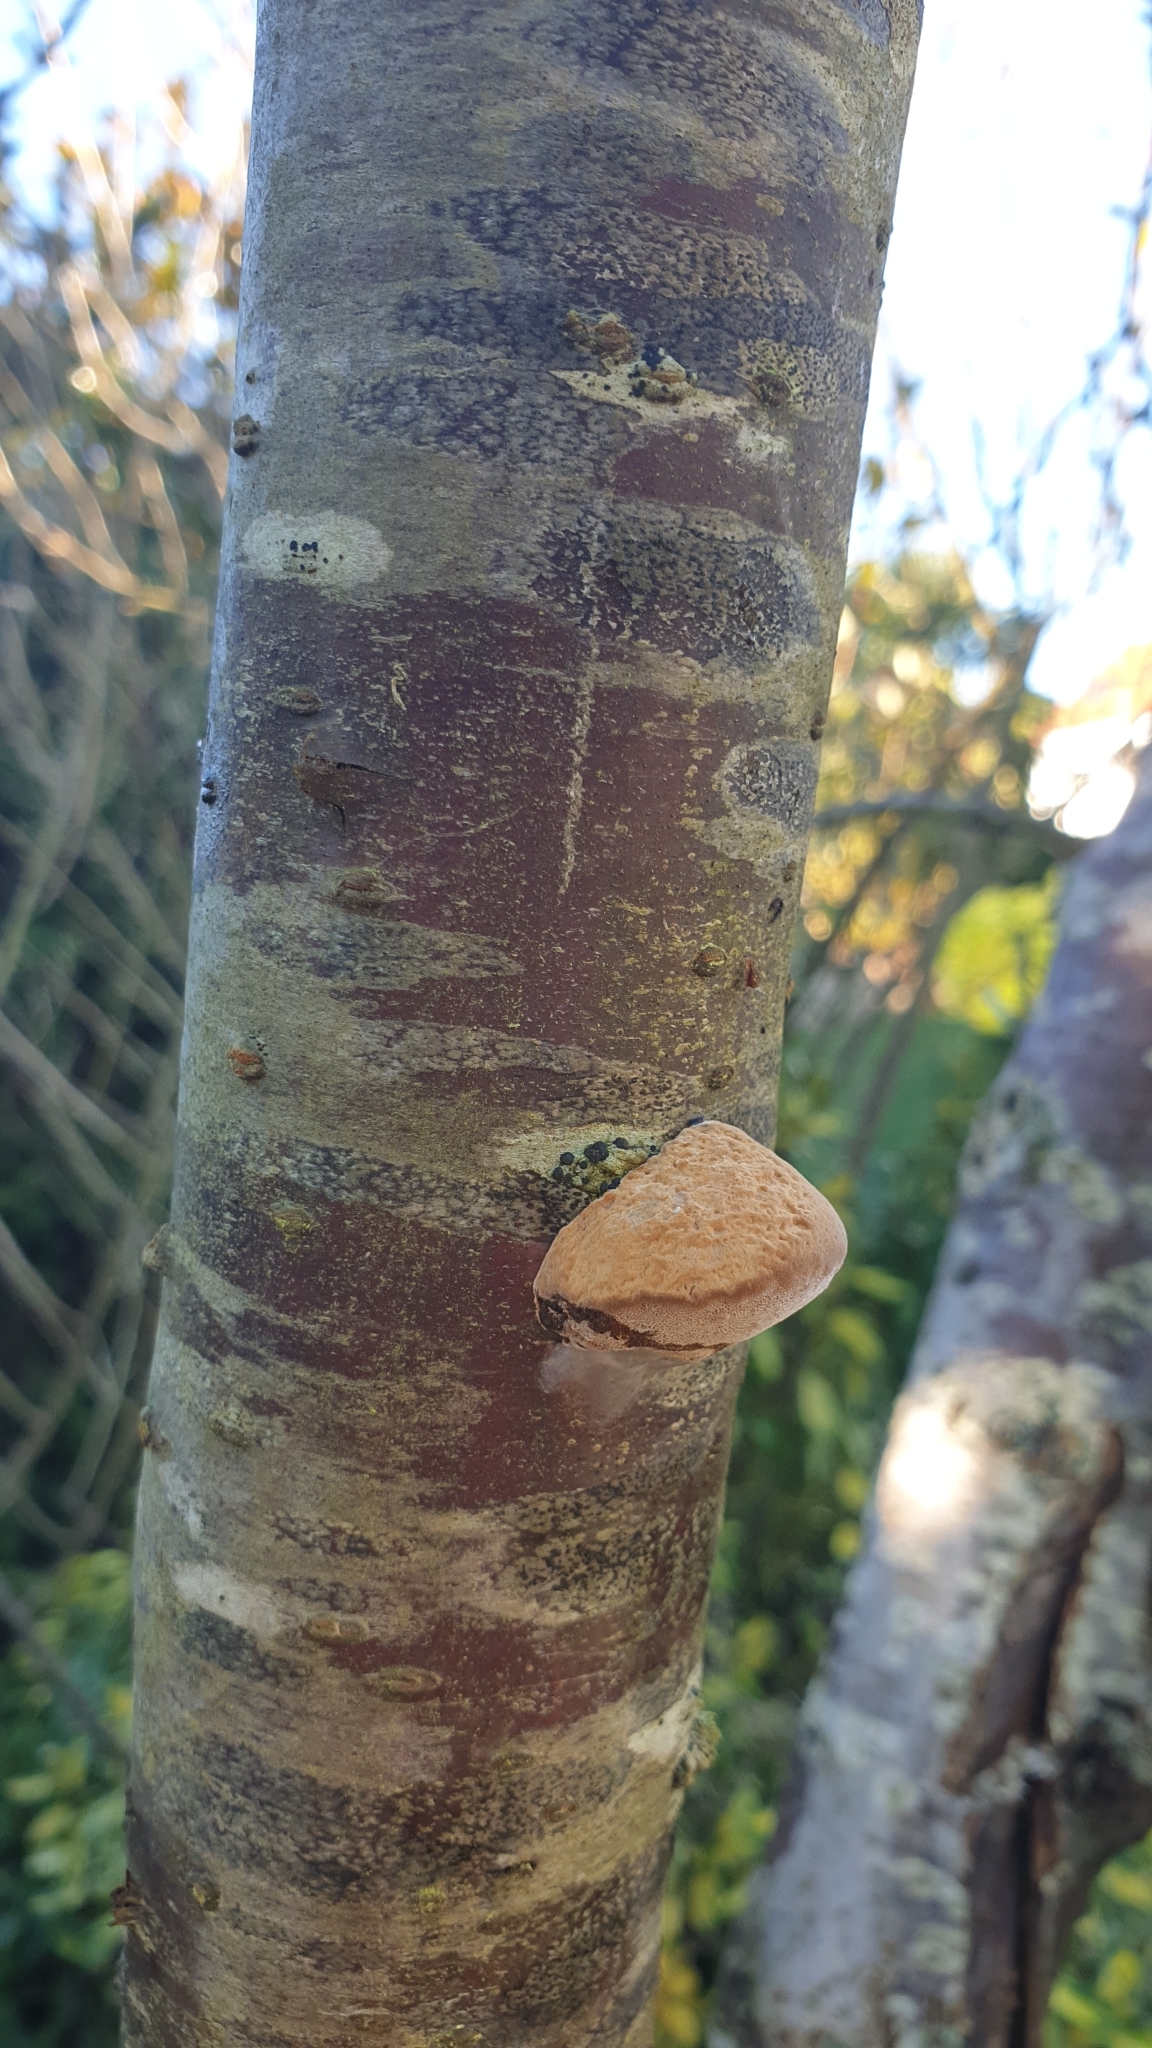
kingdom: Fungi
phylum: Basidiomycota
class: Agaricomycetes
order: Hymenochaetales
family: Hymenochaetaceae
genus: Phellinus
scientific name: Phellinus pomaceus
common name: Cushion bracket
